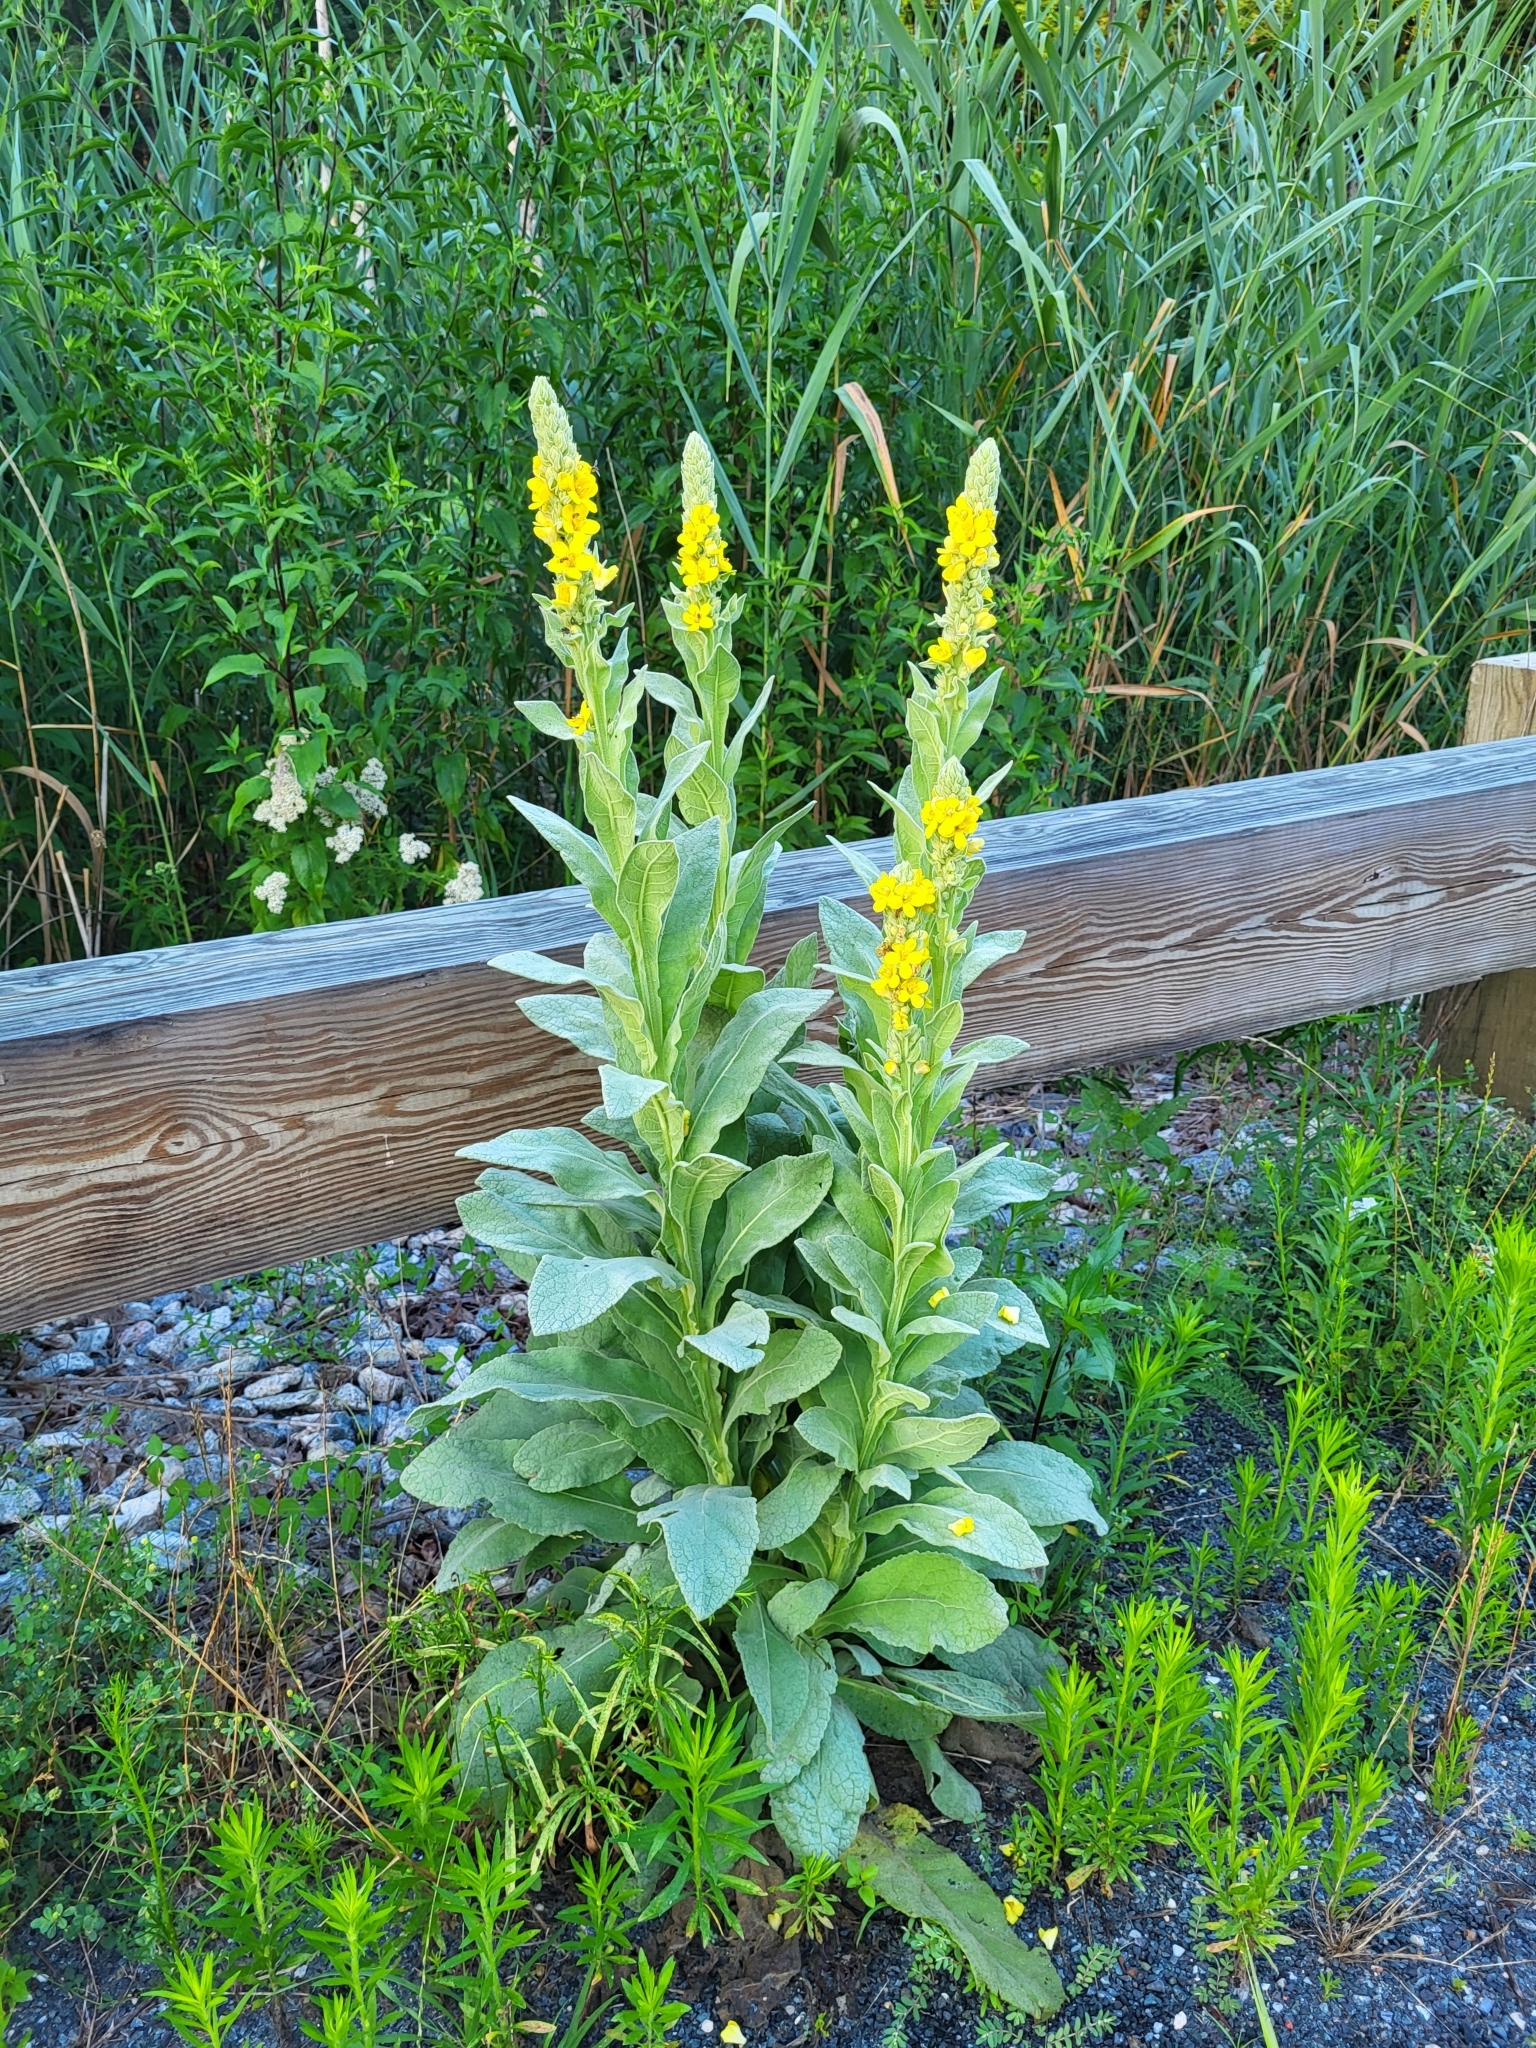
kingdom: Plantae
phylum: Tracheophyta
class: Magnoliopsida
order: Lamiales
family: Scrophulariaceae
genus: Verbascum
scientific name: Verbascum thapsus
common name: Common mullein
